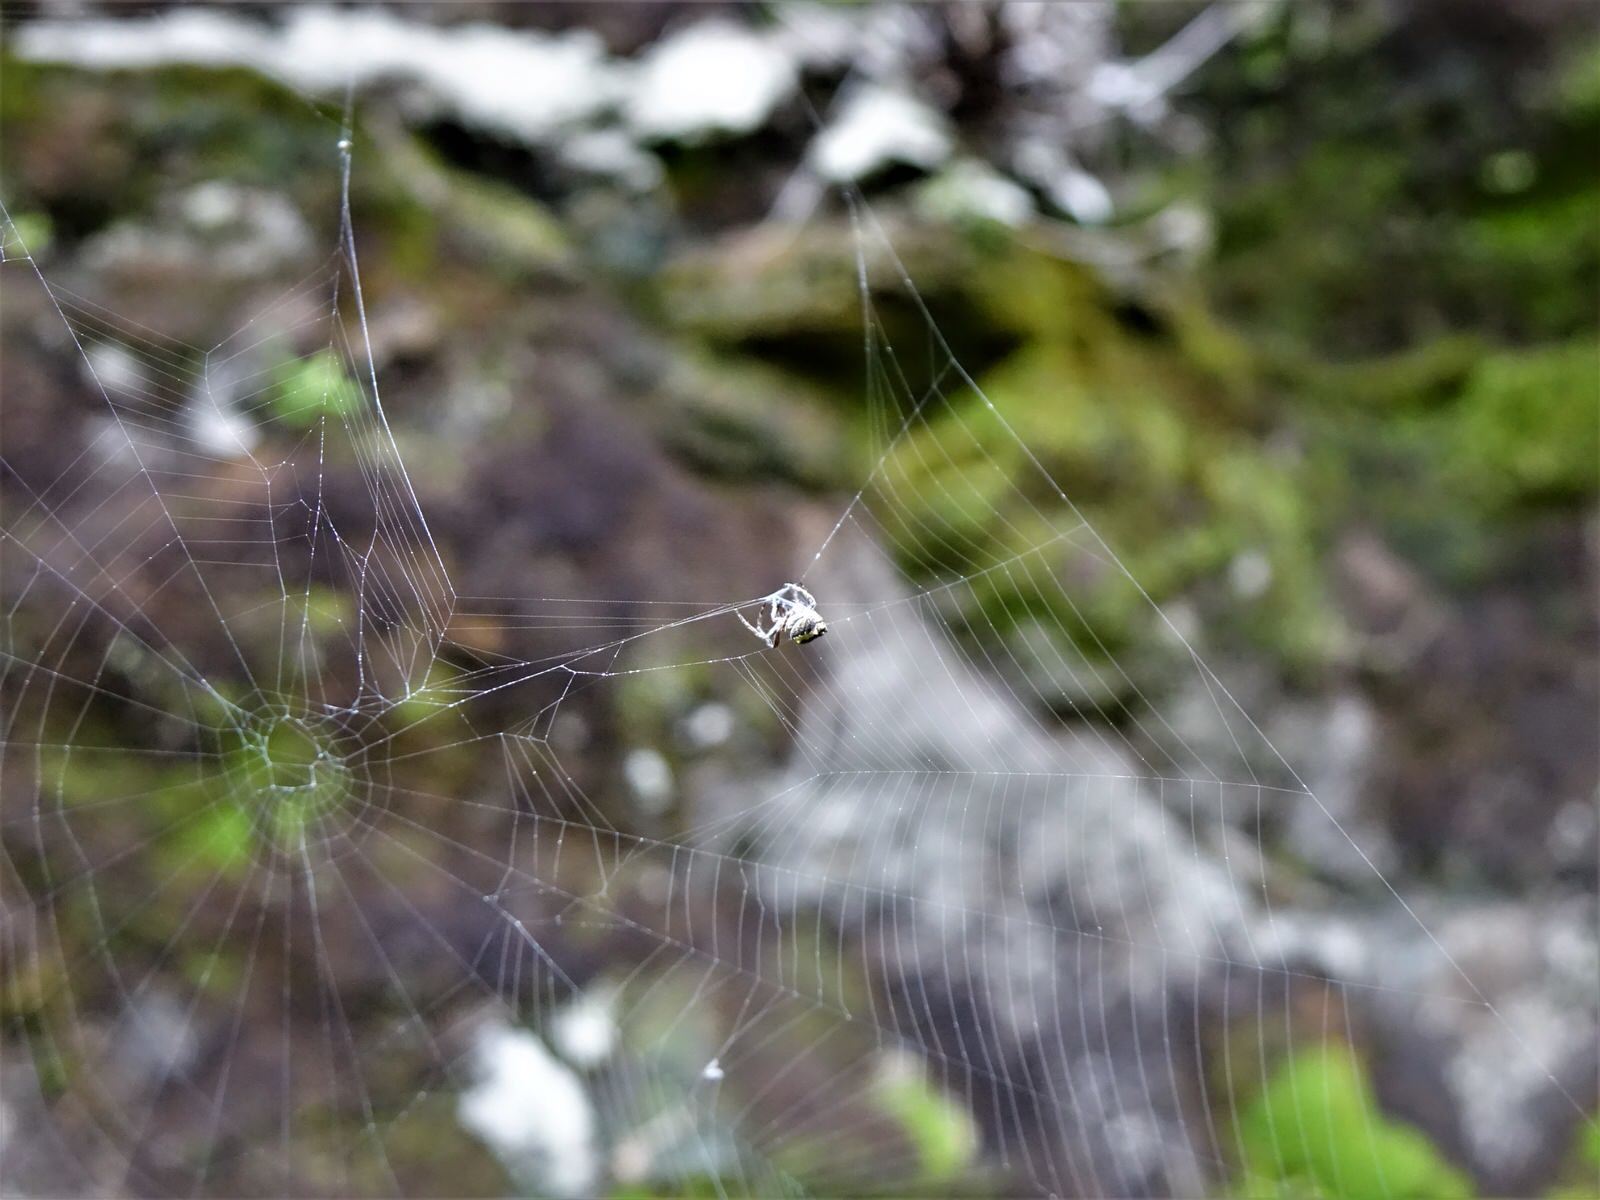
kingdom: Animalia
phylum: Arthropoda
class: Arachnida
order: Araneae
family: Araneidae
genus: Eriophora
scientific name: Eriophora pustulosa
